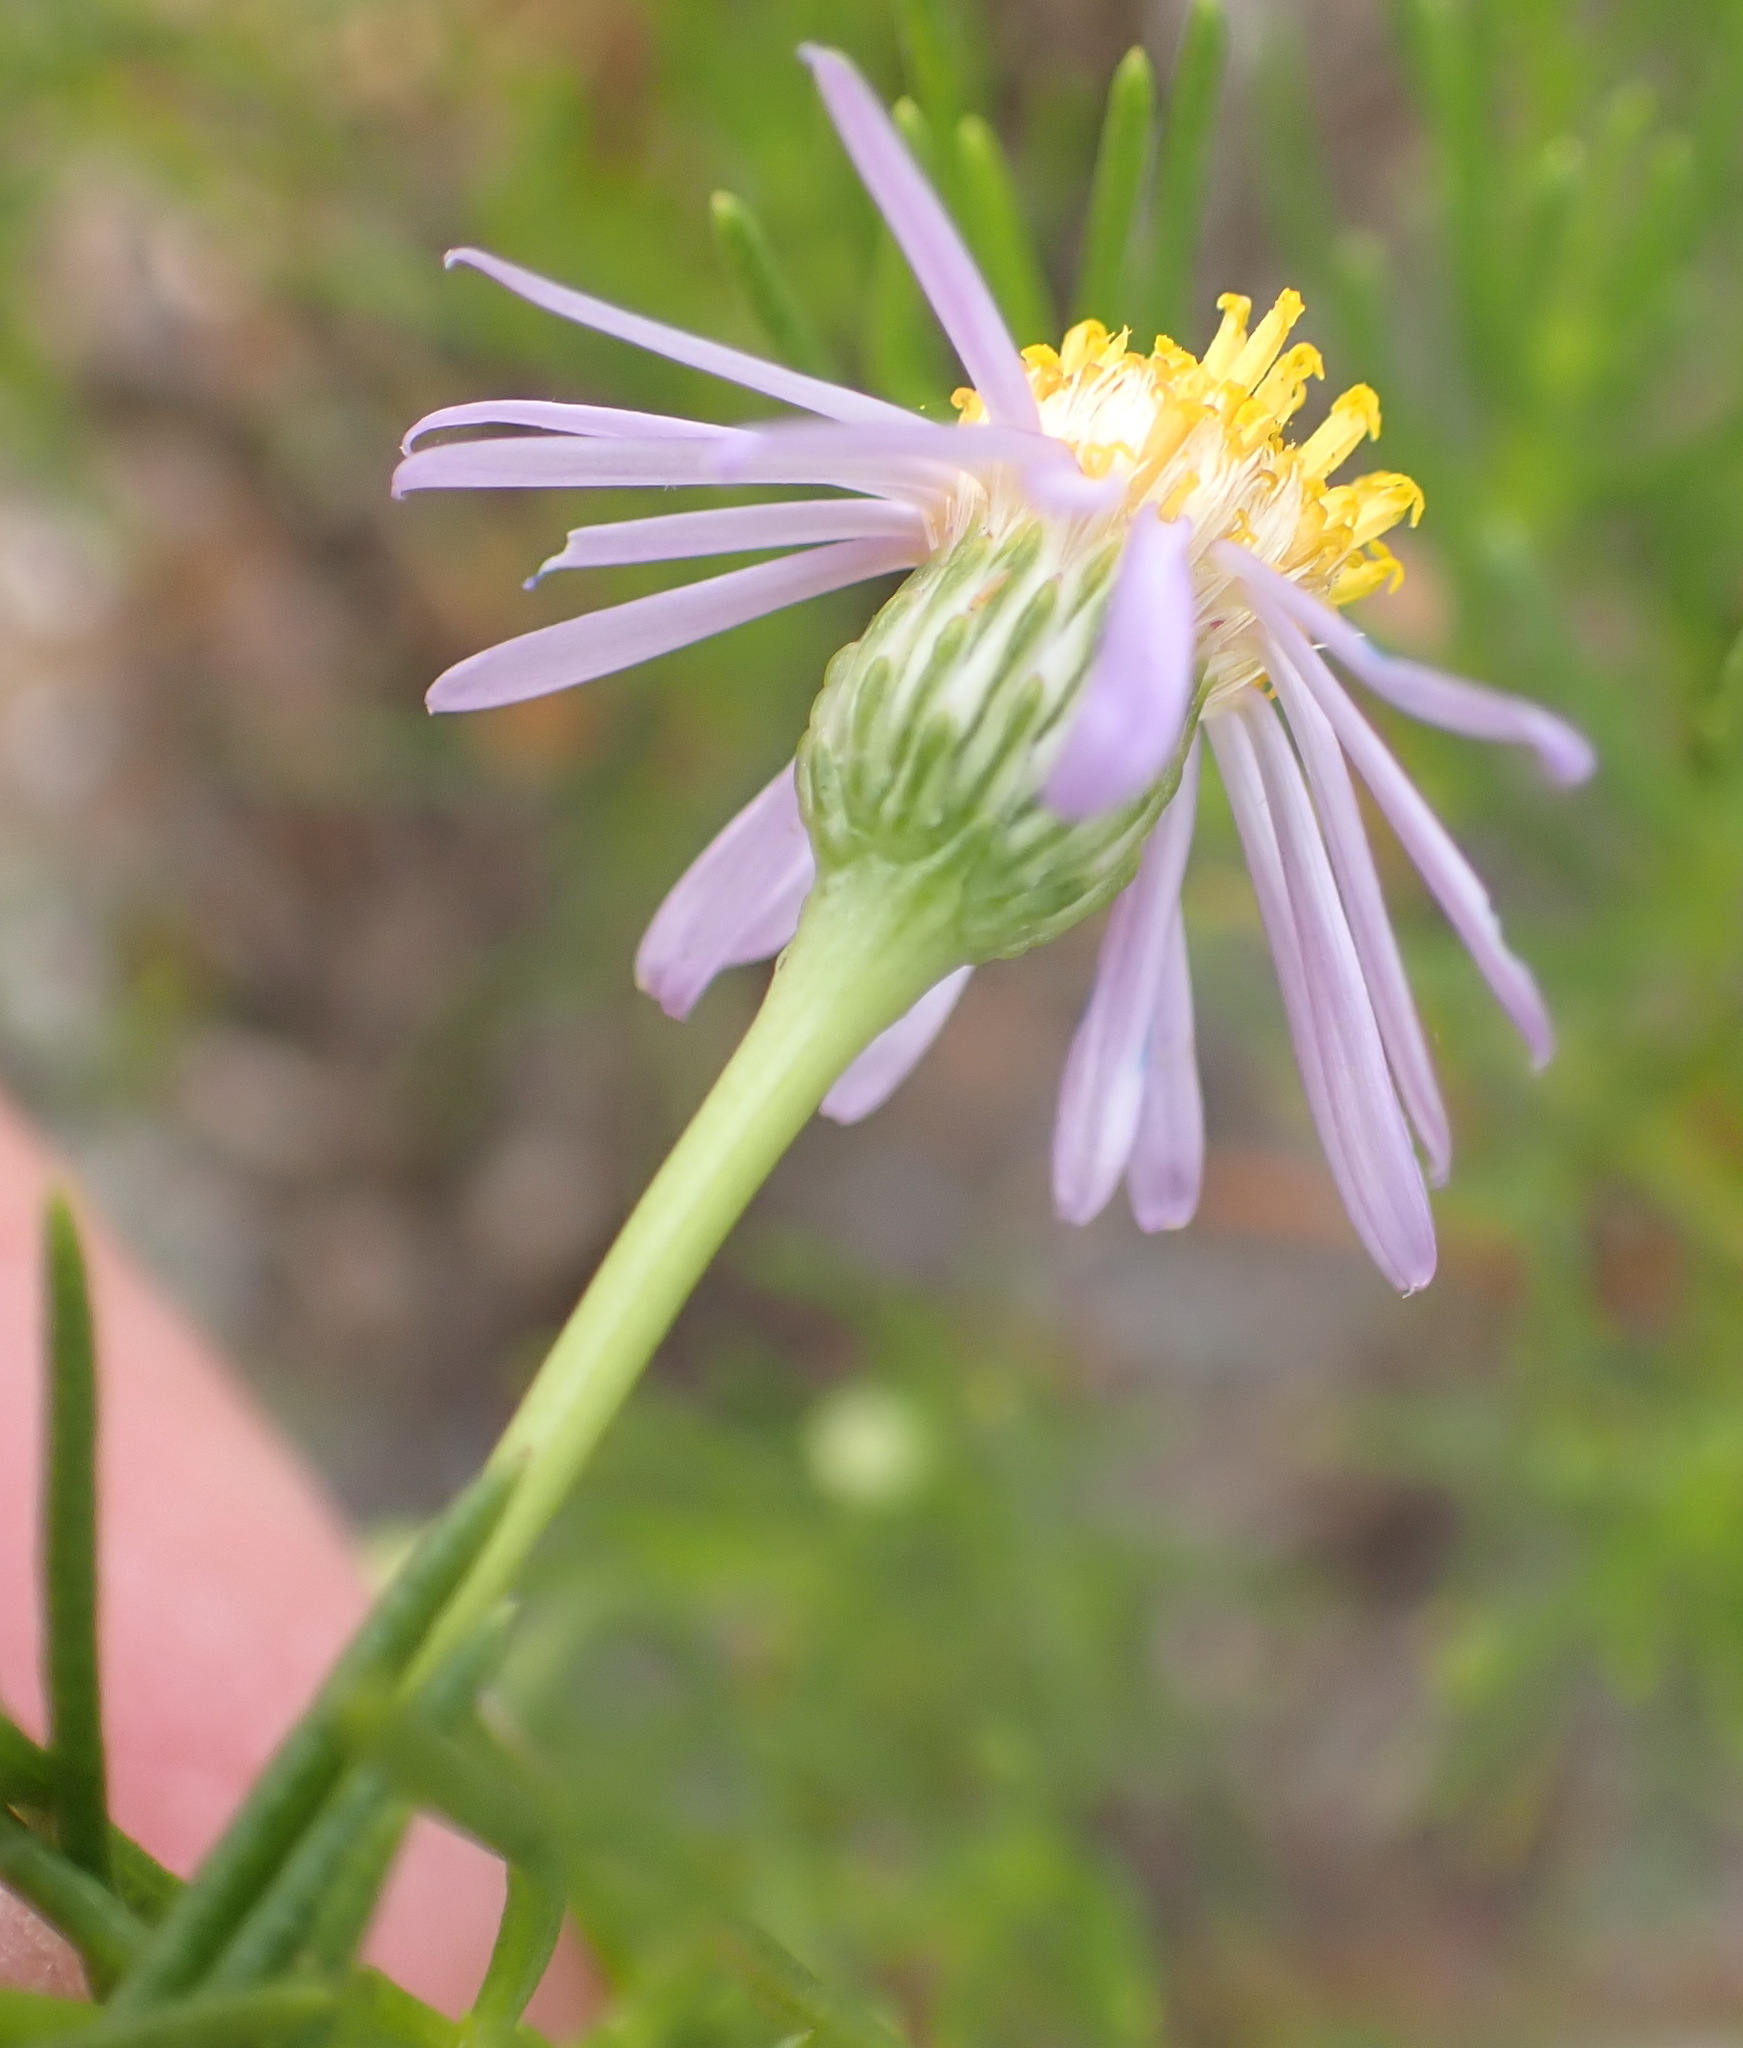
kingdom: Plantae
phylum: Tracheophyta
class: Magnoliopsida
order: Asterales
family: Asteraceae
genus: Felicia
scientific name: Felicia filifolia
